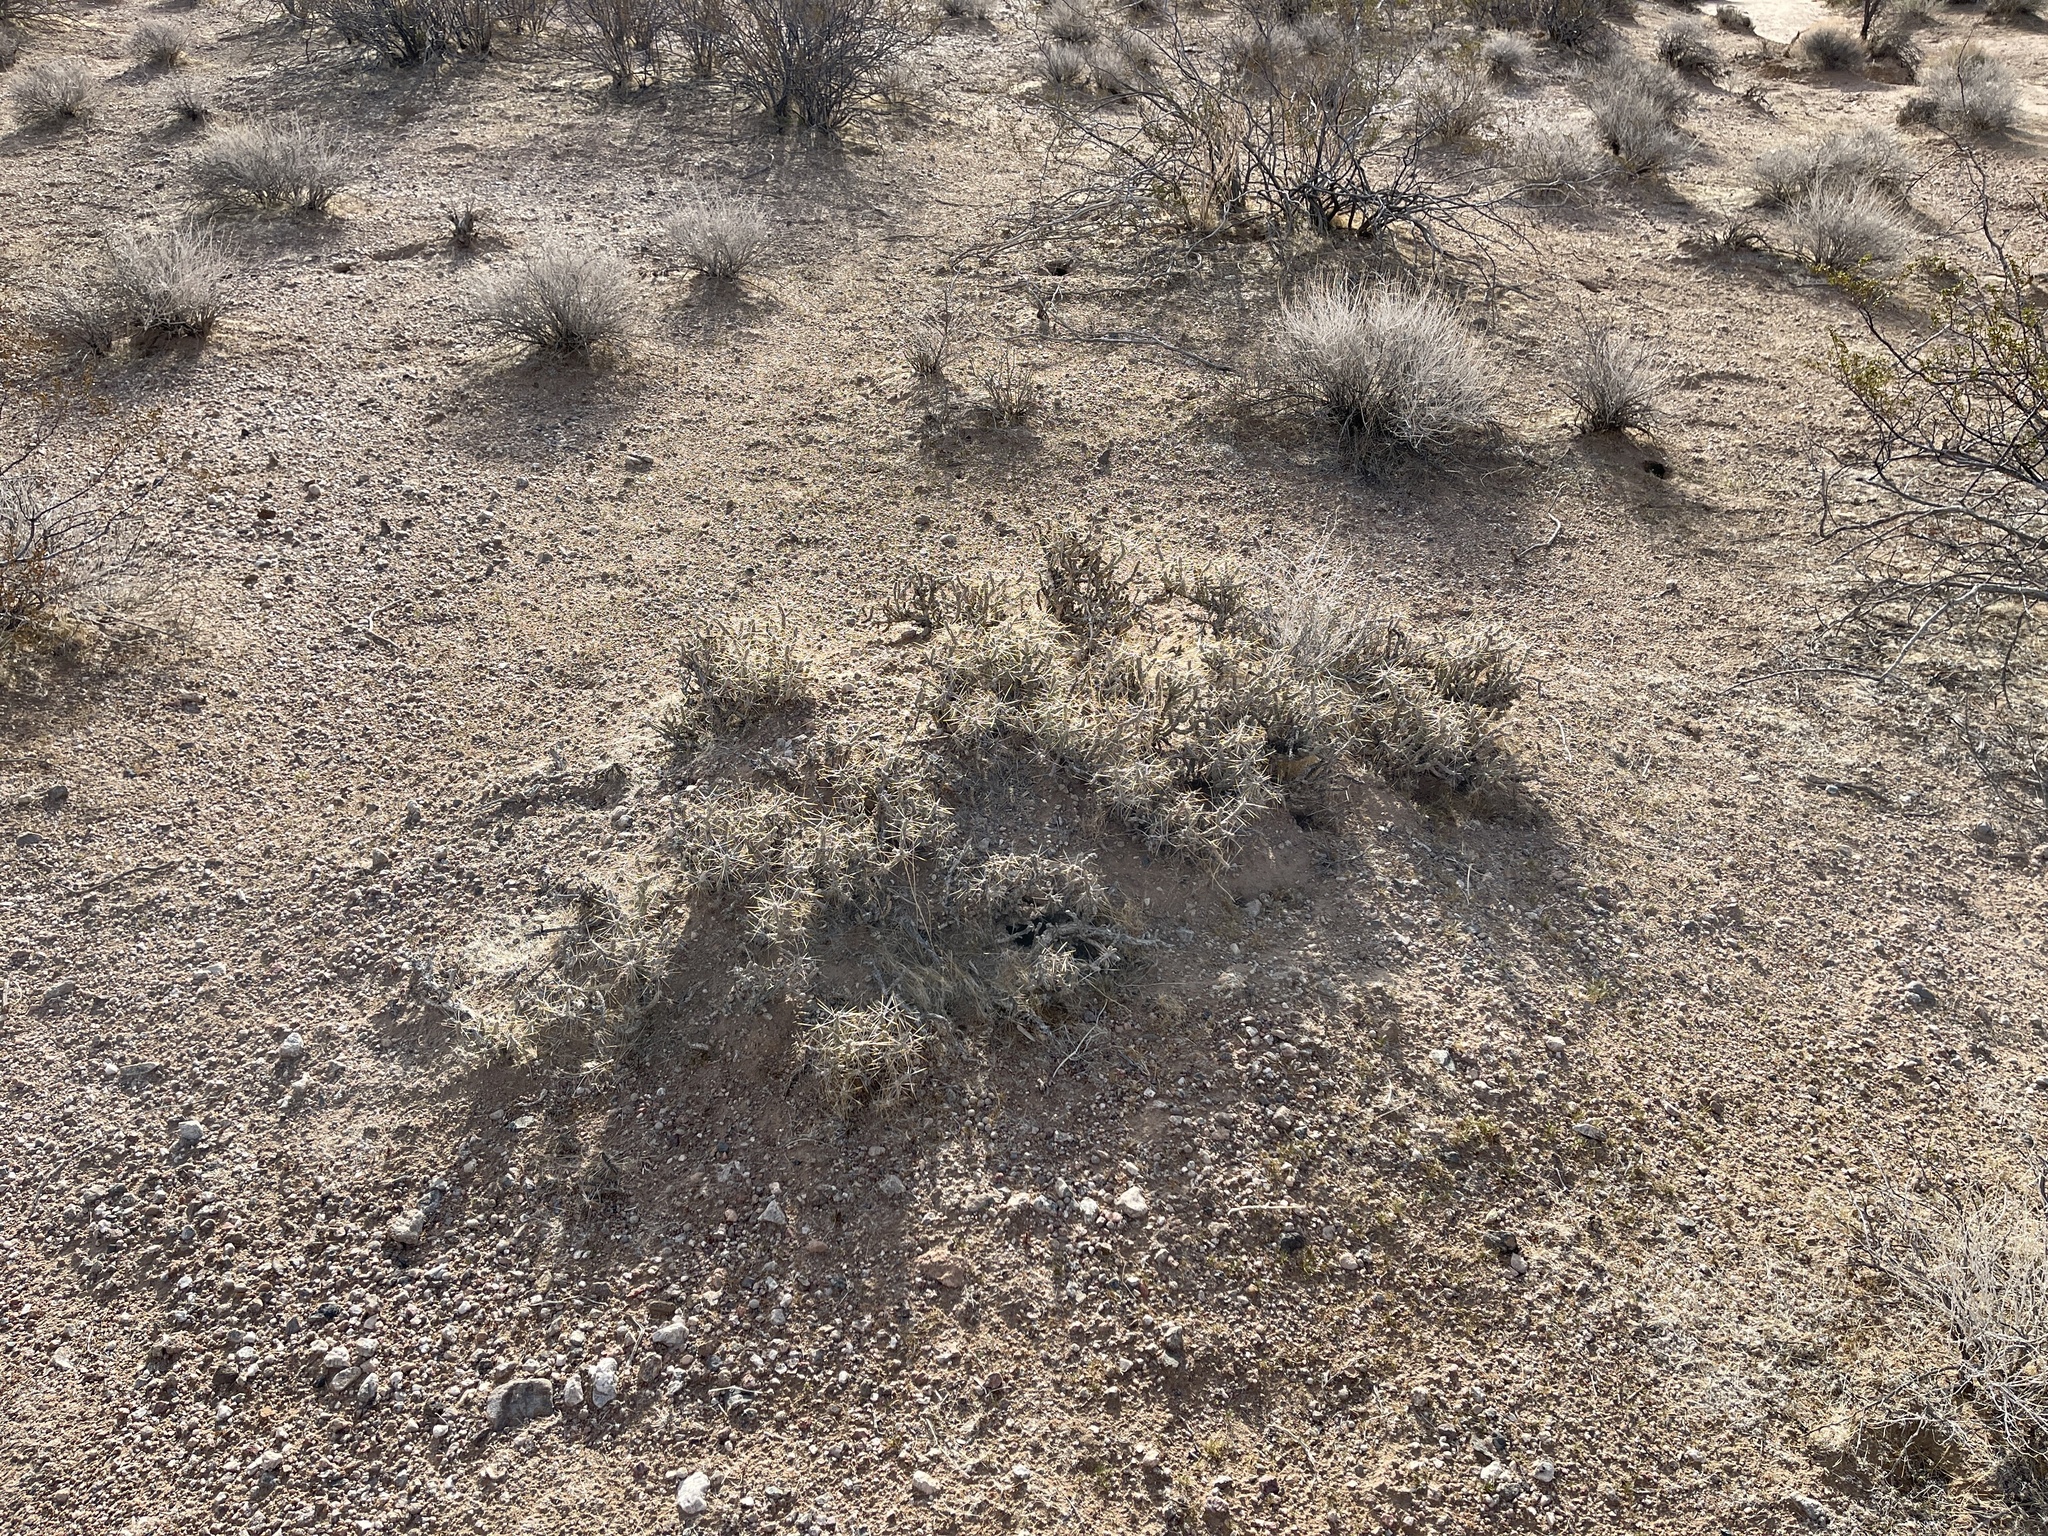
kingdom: Plantae
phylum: Tracheophyta
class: Magnoliopsida
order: Caryophyllales
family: Cactaceae
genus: Cylindropuntia
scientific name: Cylindropuntia ramosissima
